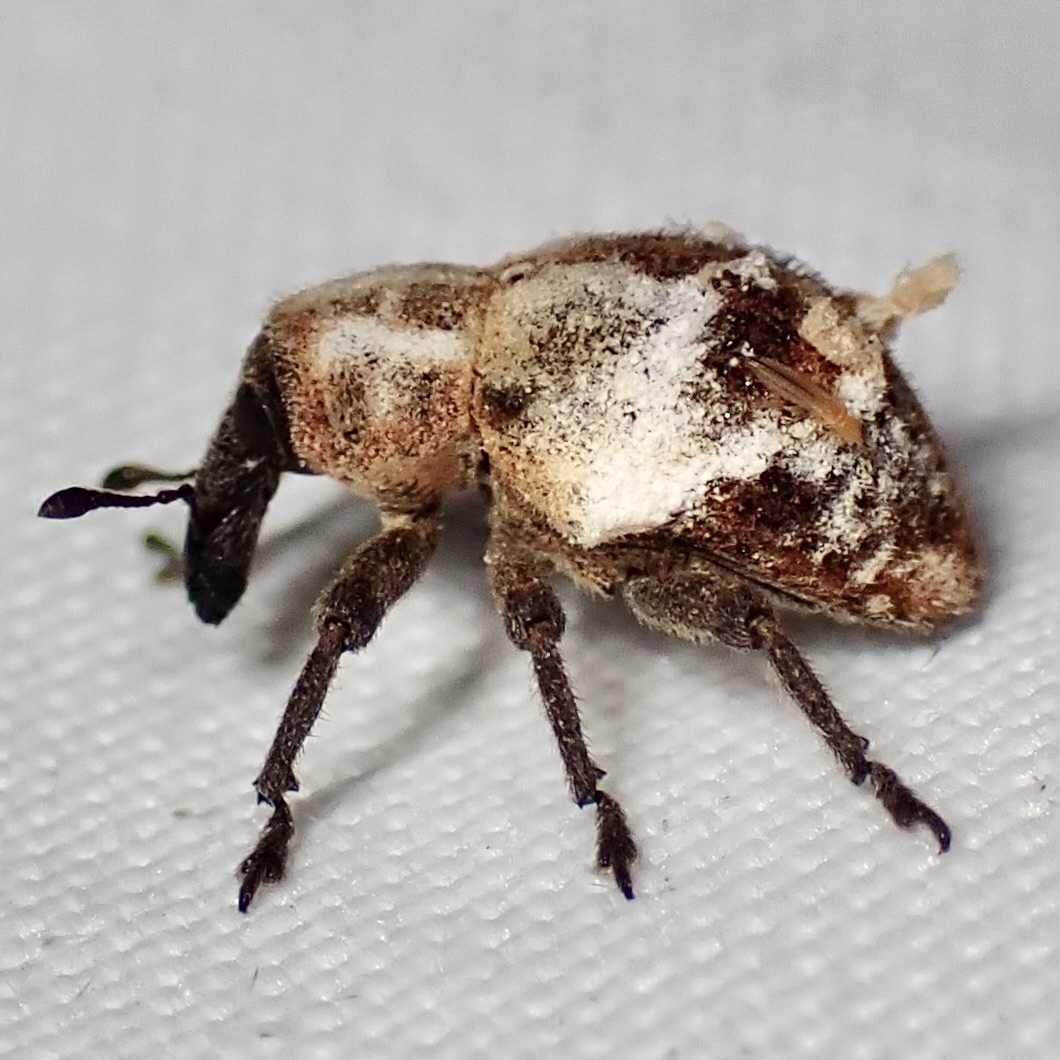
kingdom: Animalia
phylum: Arthropoda
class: Insecta
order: Coleoptera
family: Curculionidae
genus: Sternechus
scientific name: Sternechus paludatus
